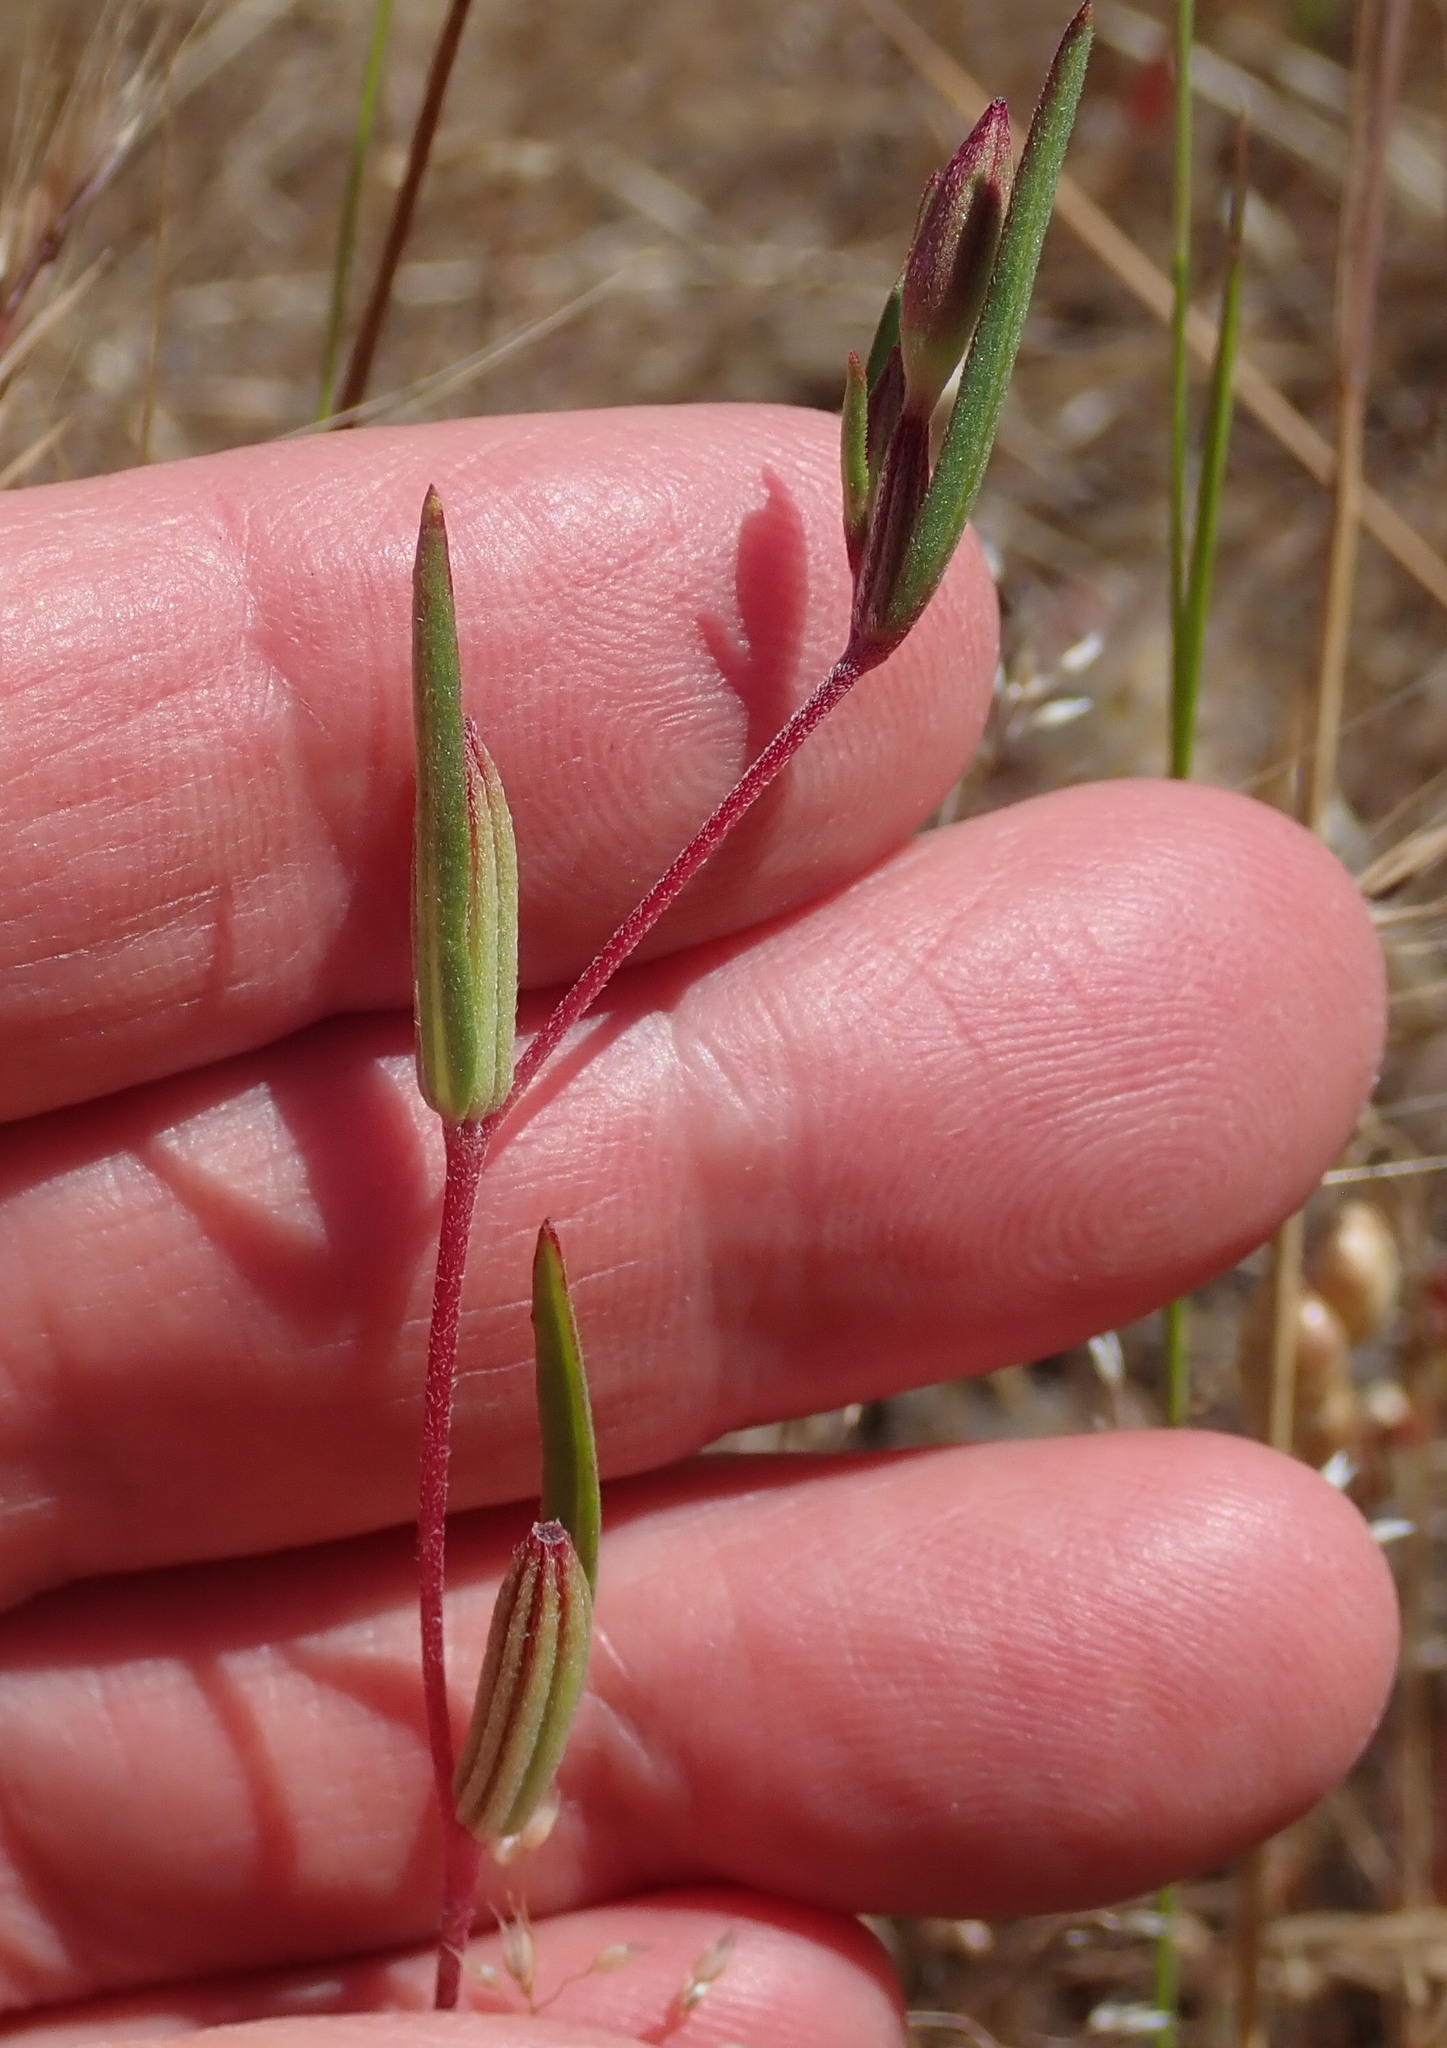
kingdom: Plantae
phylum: Tracheophyta
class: Magnoliopsida
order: Myrtales
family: Onagraceae
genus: Clarkia
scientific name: Clarkia purpurea
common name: Purple clarkia
